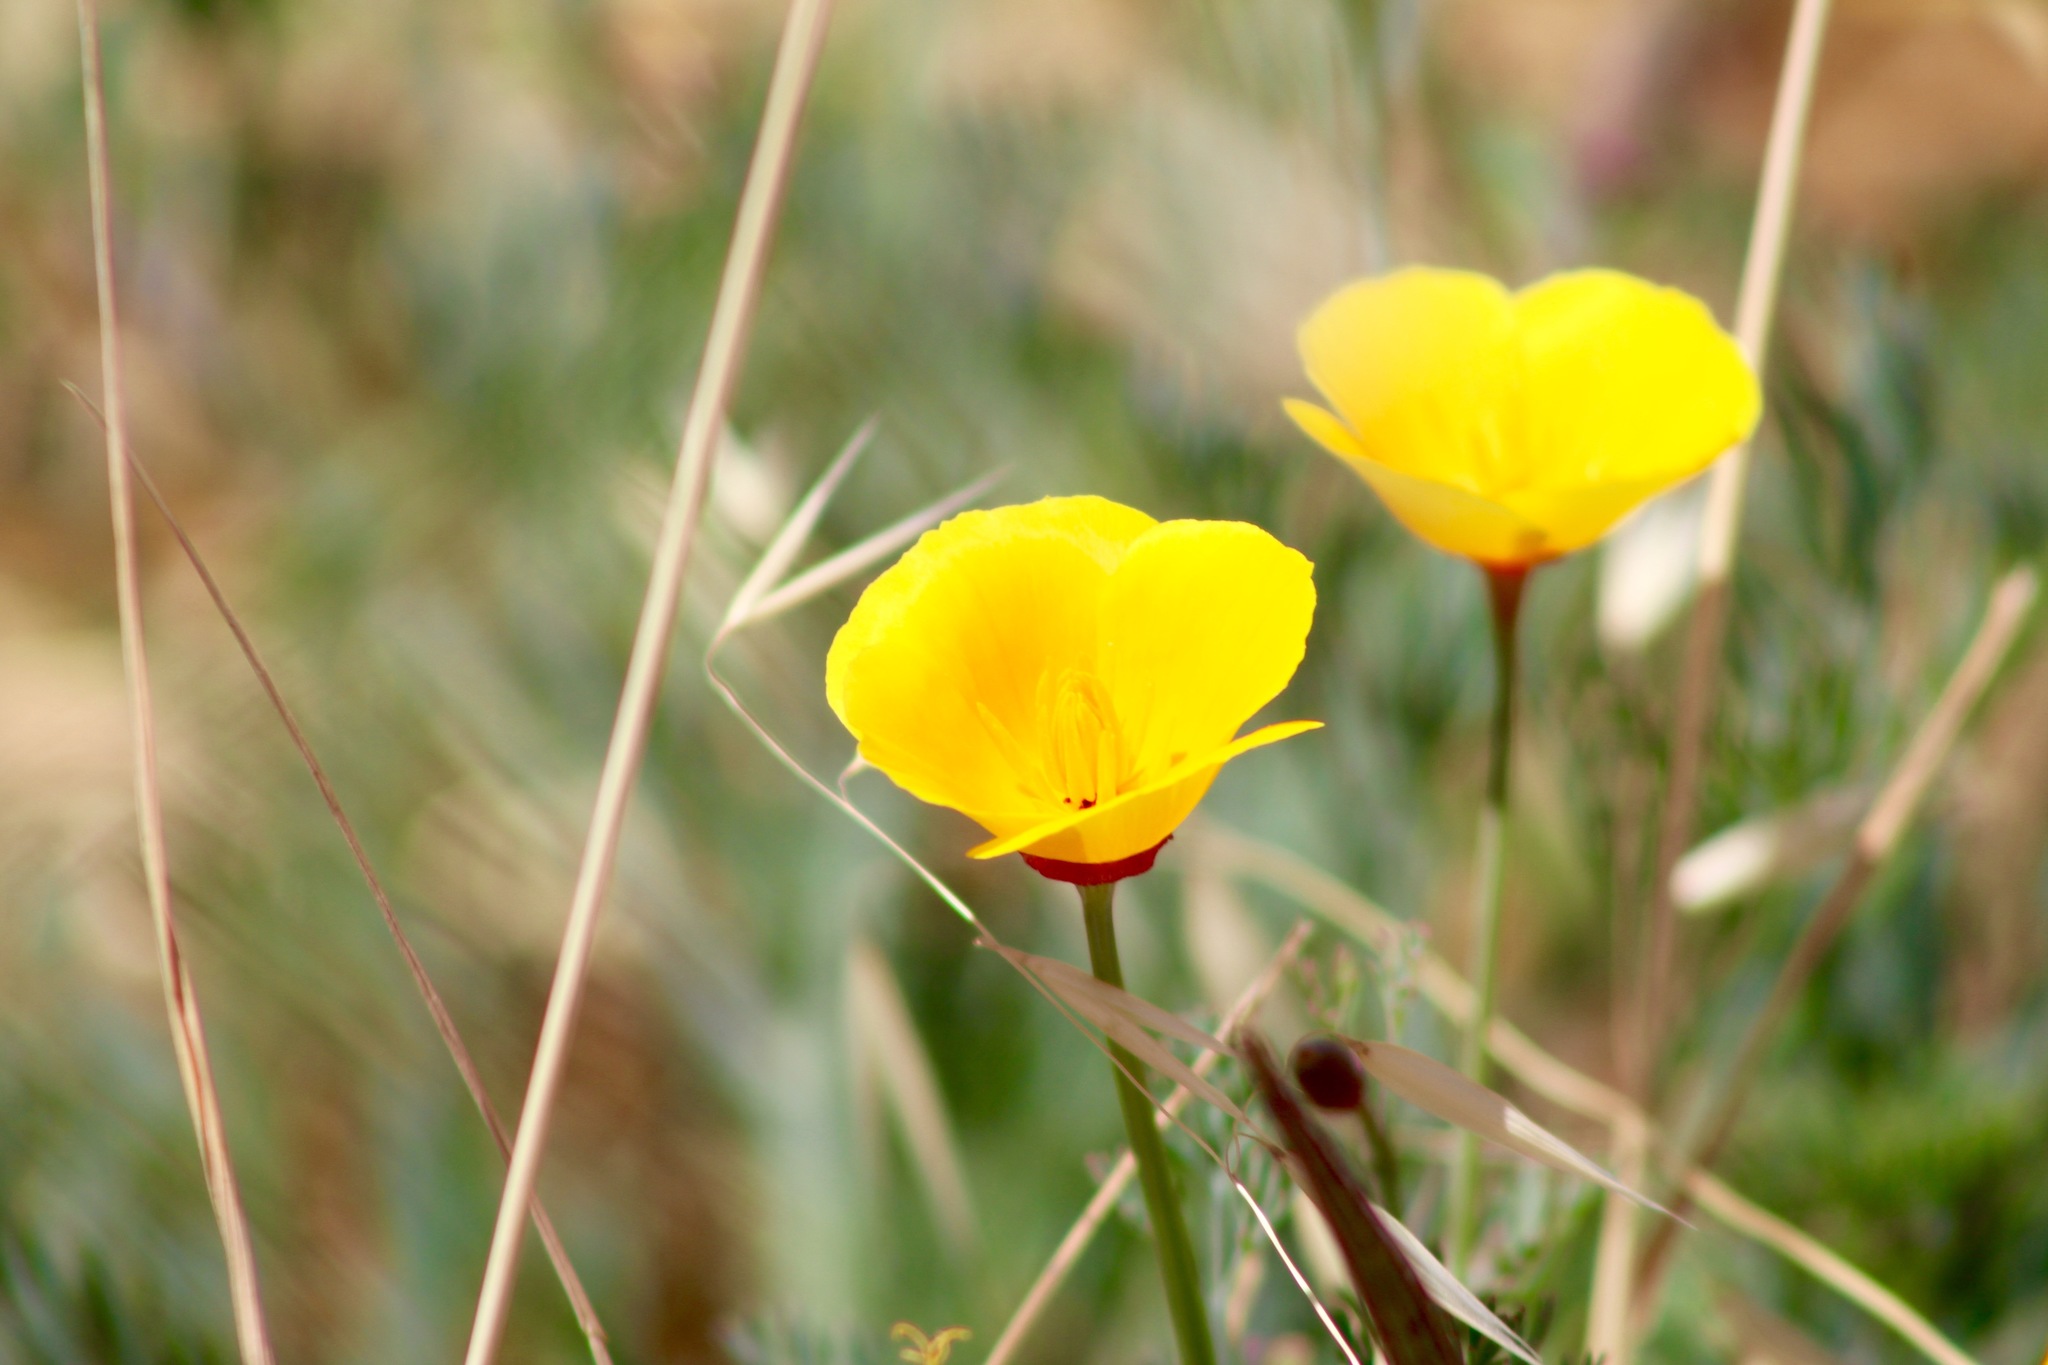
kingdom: Plantae
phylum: Tracheophyta
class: Magnoliopsida
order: Ranunculales
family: Papaveraceae
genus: Eschscholzia
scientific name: Eschscholzia californica
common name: California poppy
